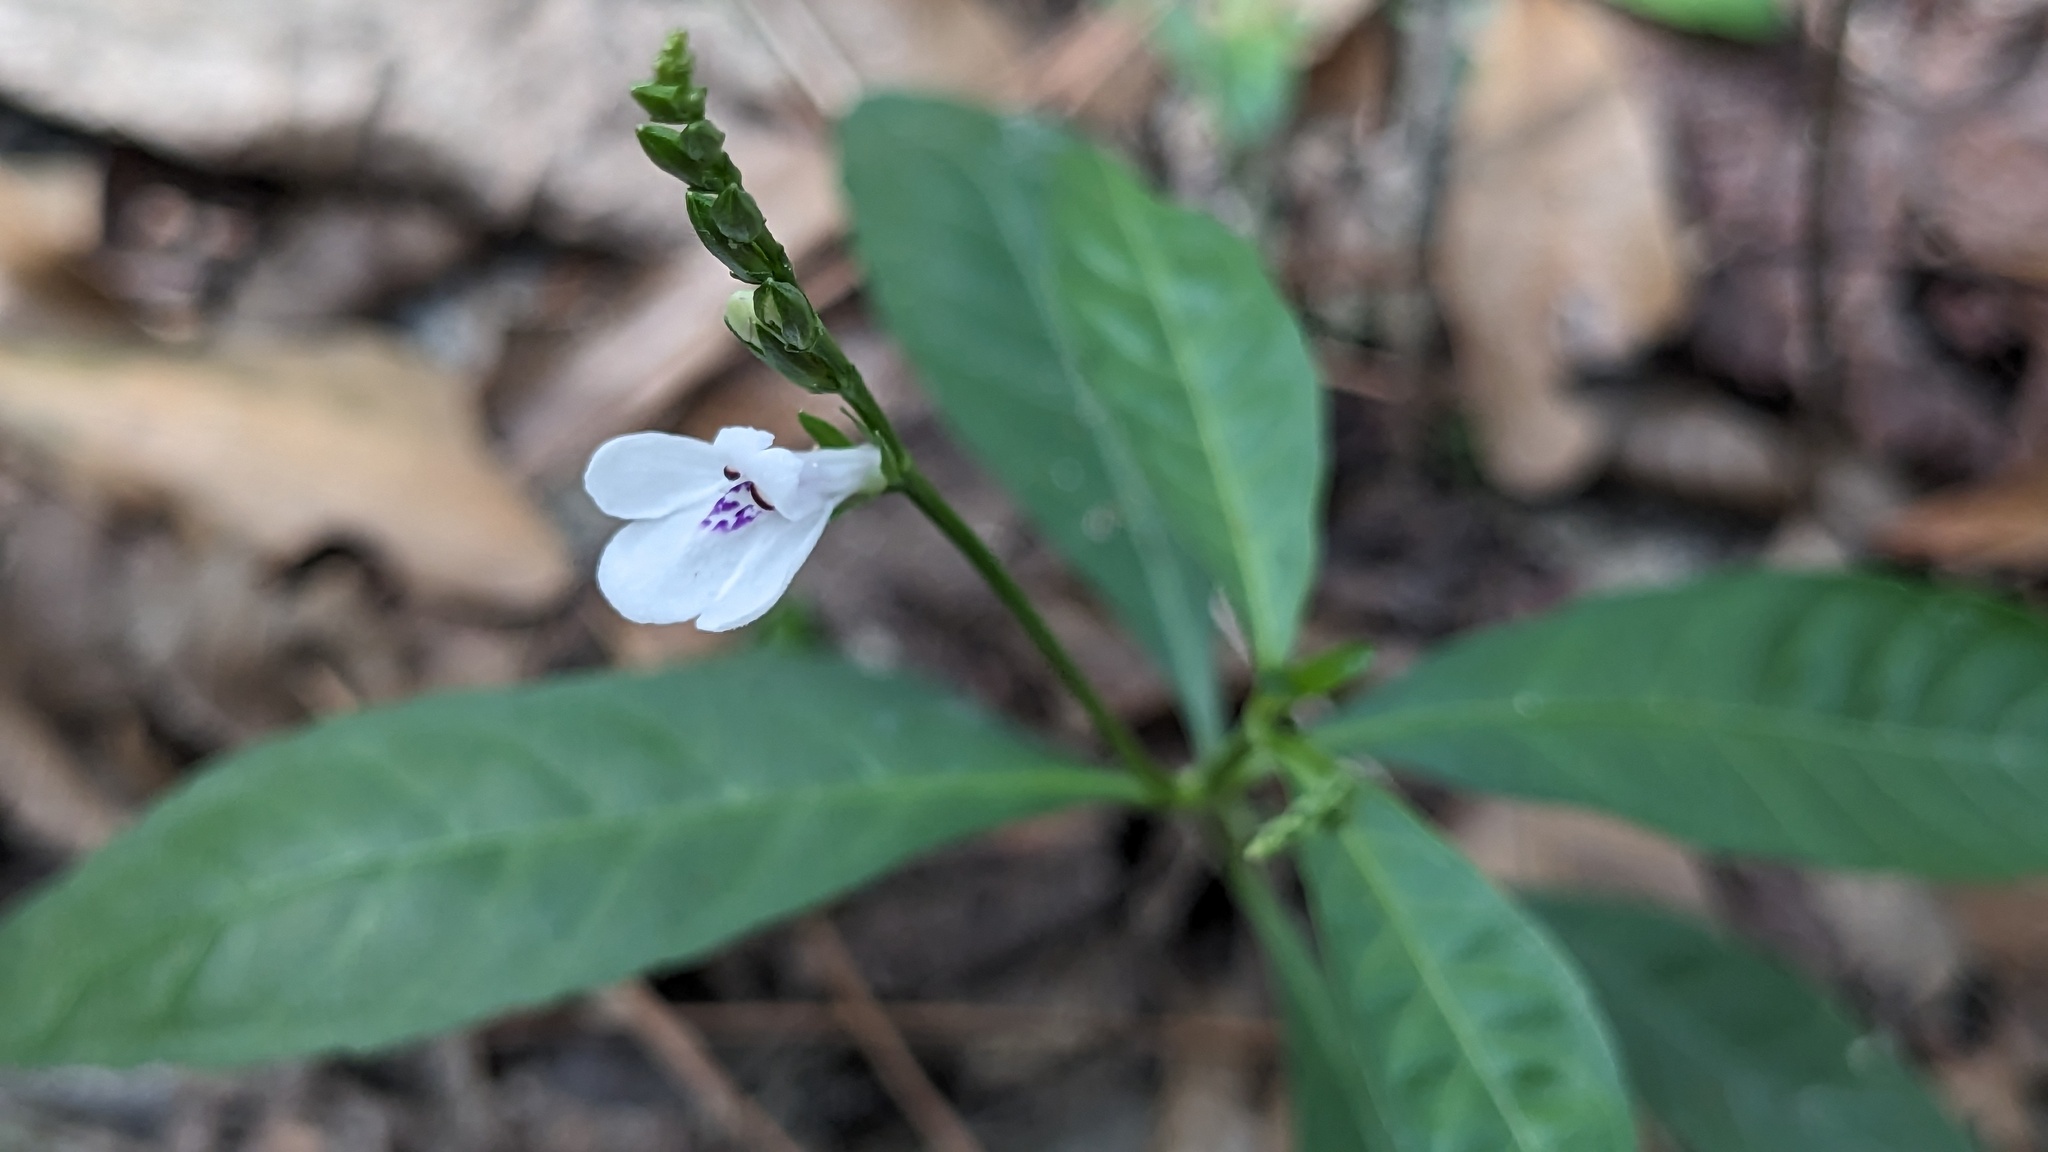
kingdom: Plantae
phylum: Tracheophyta
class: Magnoliopsida
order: Lamiales
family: Acanthaceae
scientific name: Acanthaceae
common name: Acanthaceae
